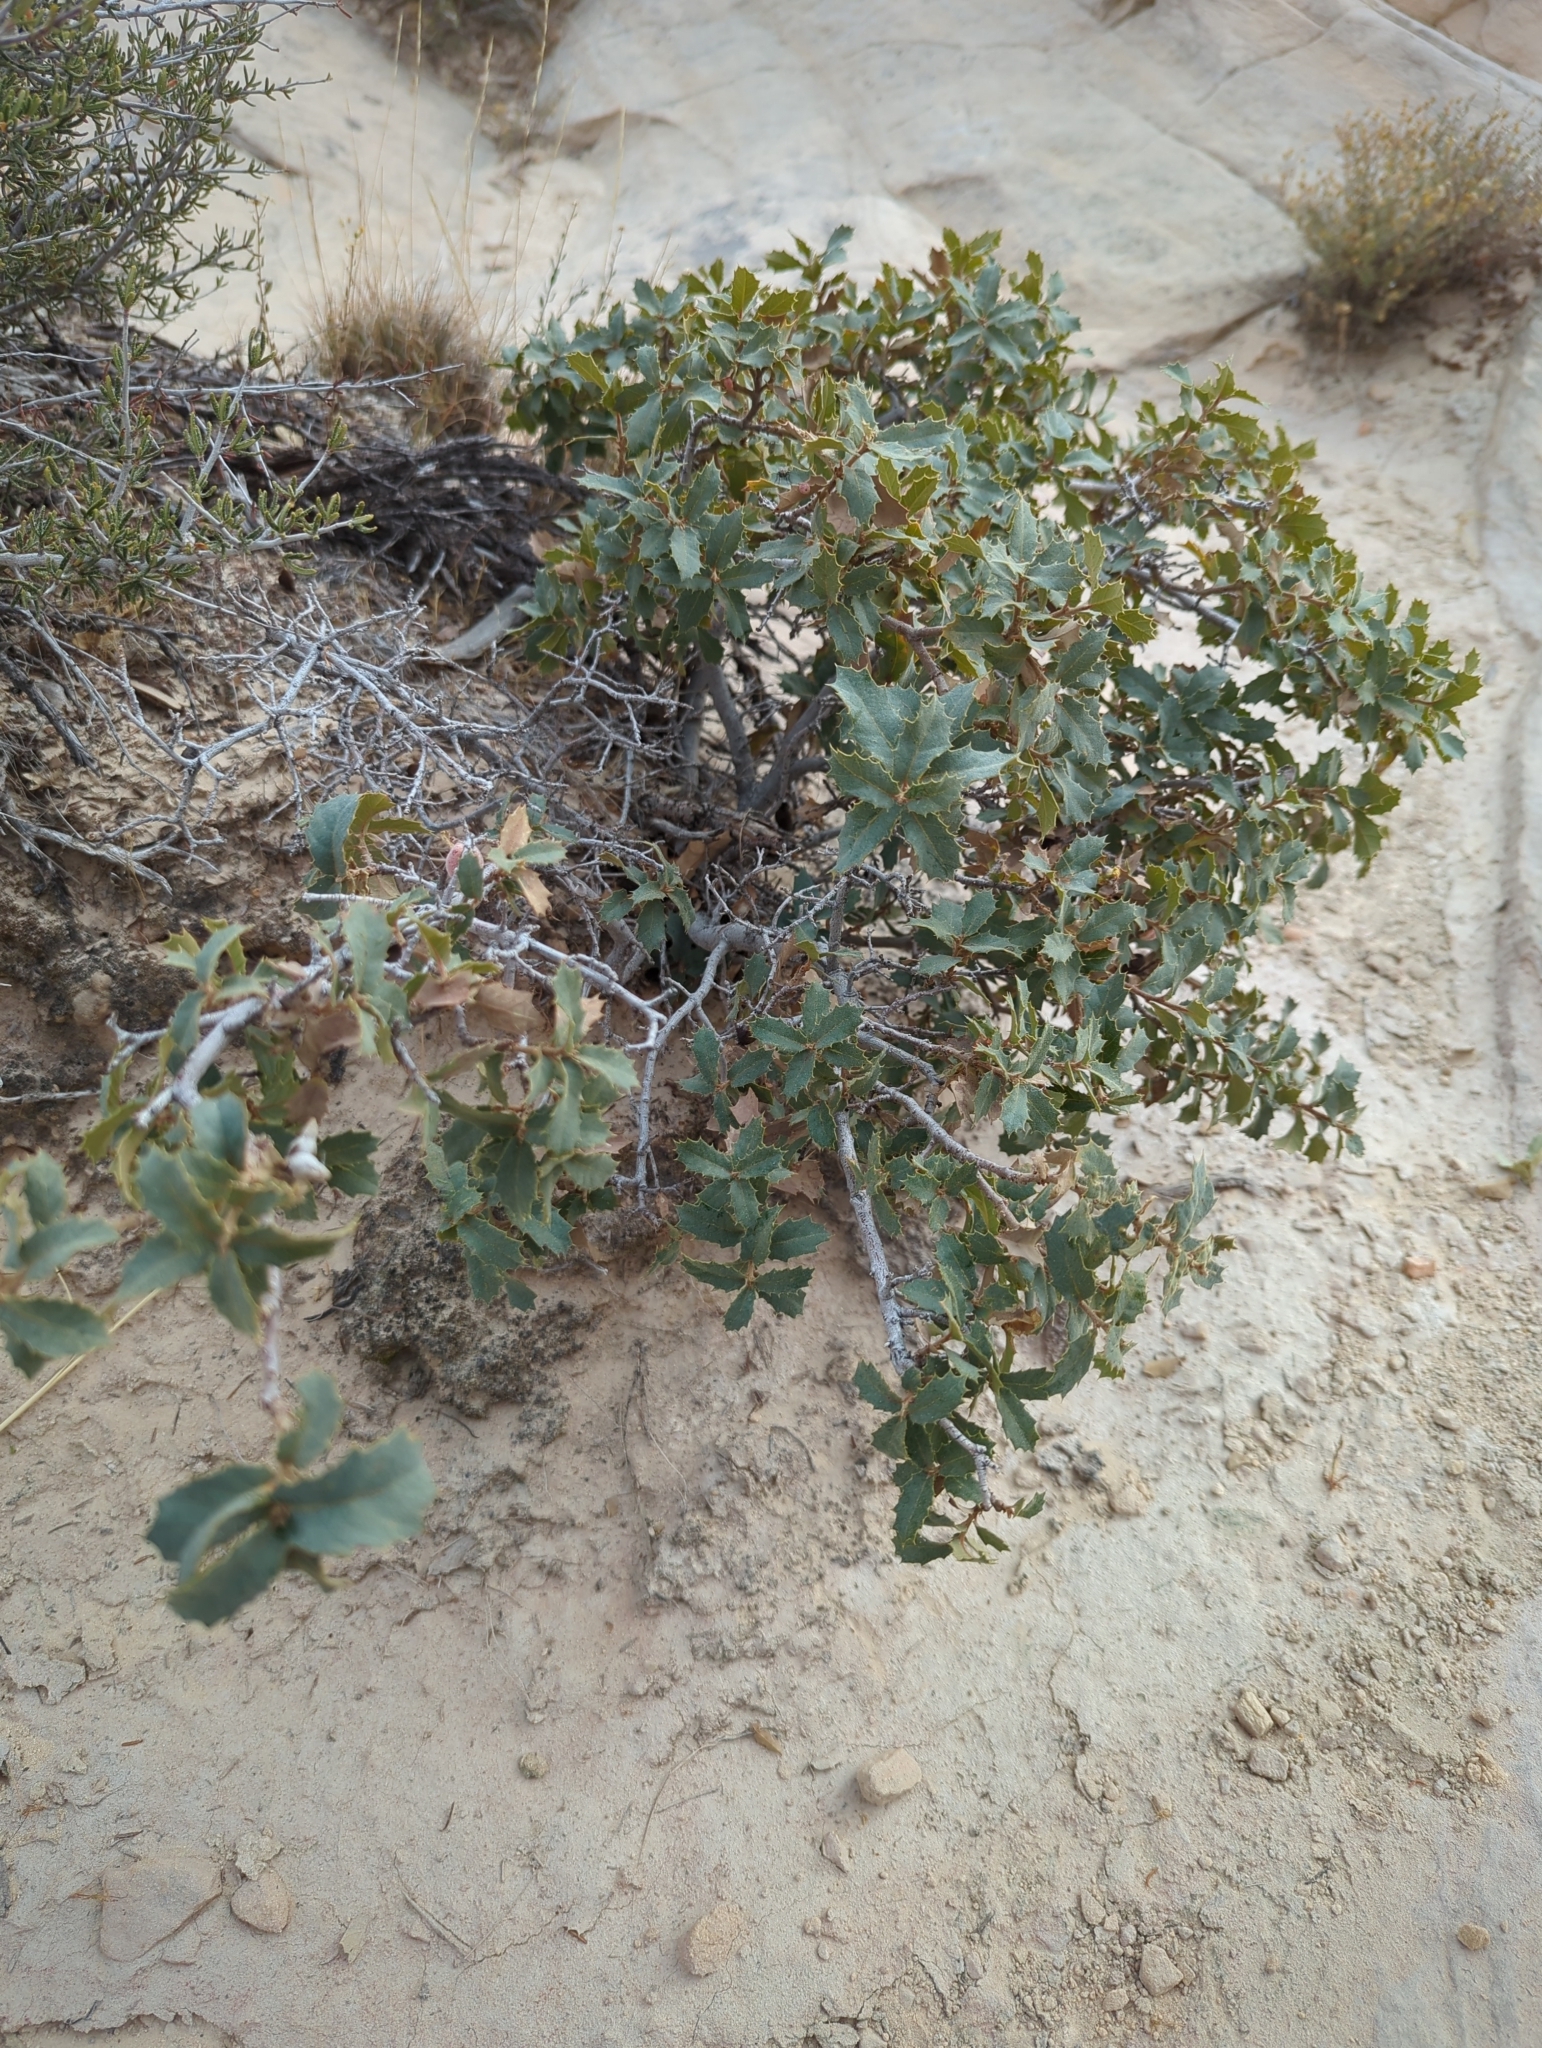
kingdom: Plantae
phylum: Tracheophyta
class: Magnoliopsida
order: Fagales
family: Fagaceae
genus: Quercus
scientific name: Quercus turbinella
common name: Sonoran scrub oak
